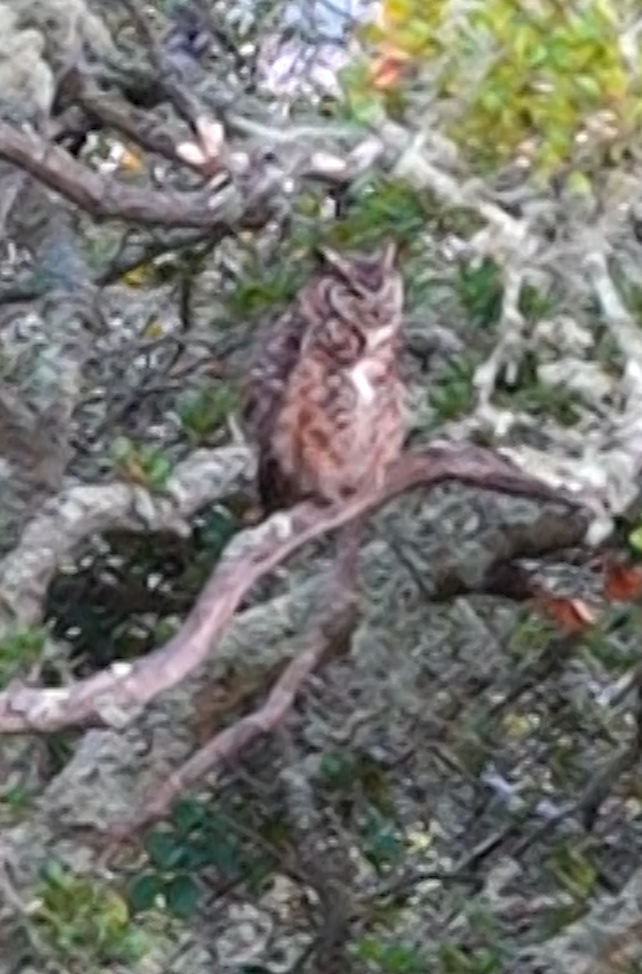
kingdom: Animalia
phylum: Chordata
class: Aves
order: Strigiformes
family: Strigidae
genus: Bubo
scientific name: Bubo virginianus
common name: Great horned owl
